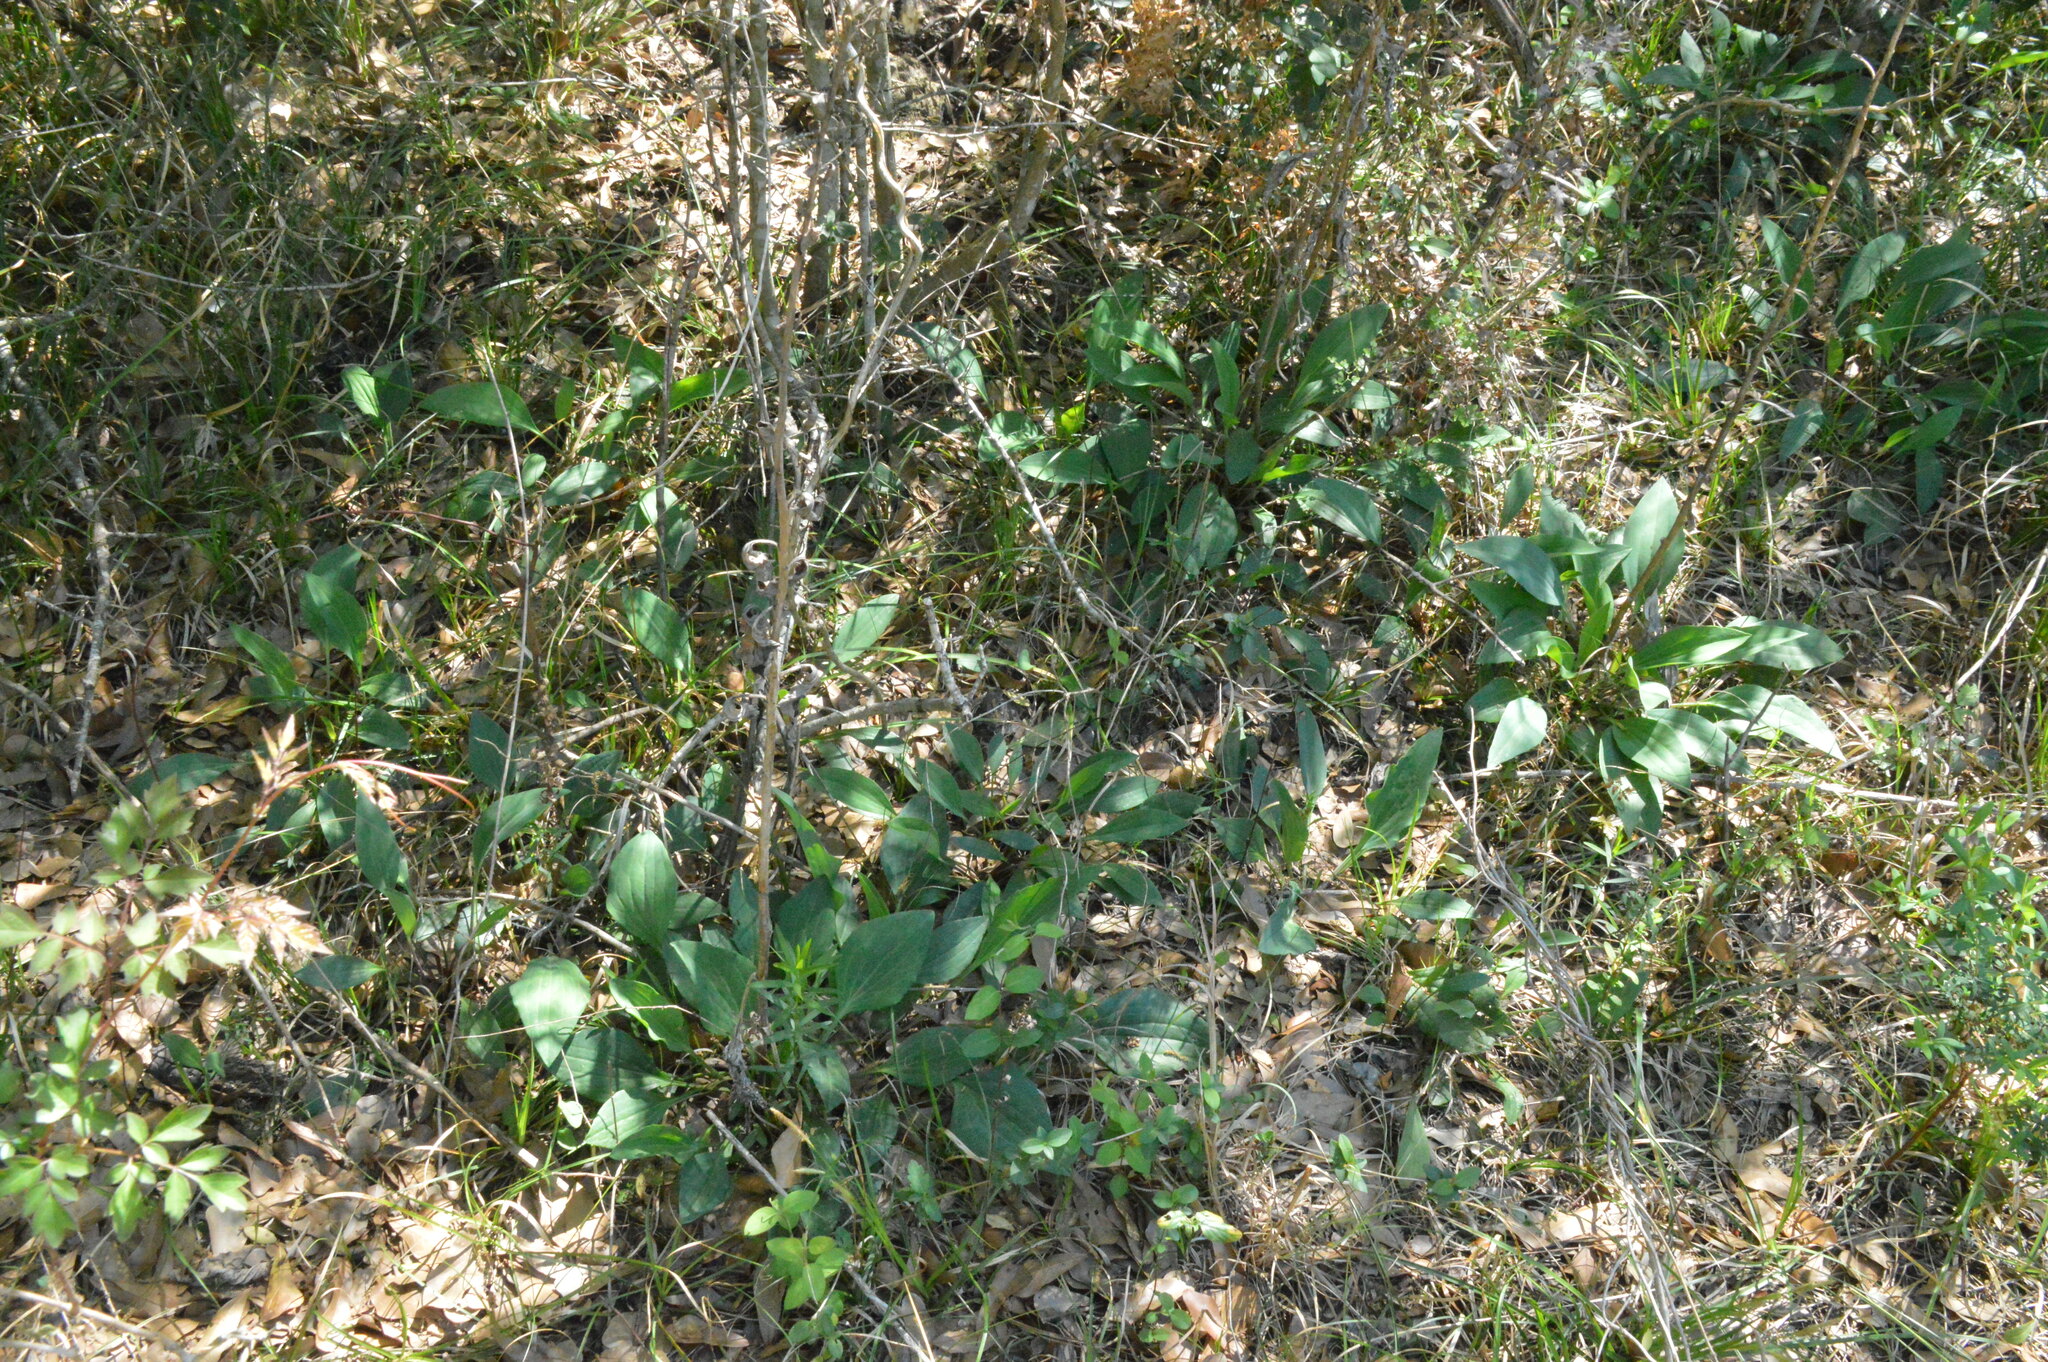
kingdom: Plantae
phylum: Tracheophyta
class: Magnoliopsida
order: Asterales
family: Asteraceae
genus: Arnoglossum
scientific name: Arnoglossum ovatum
